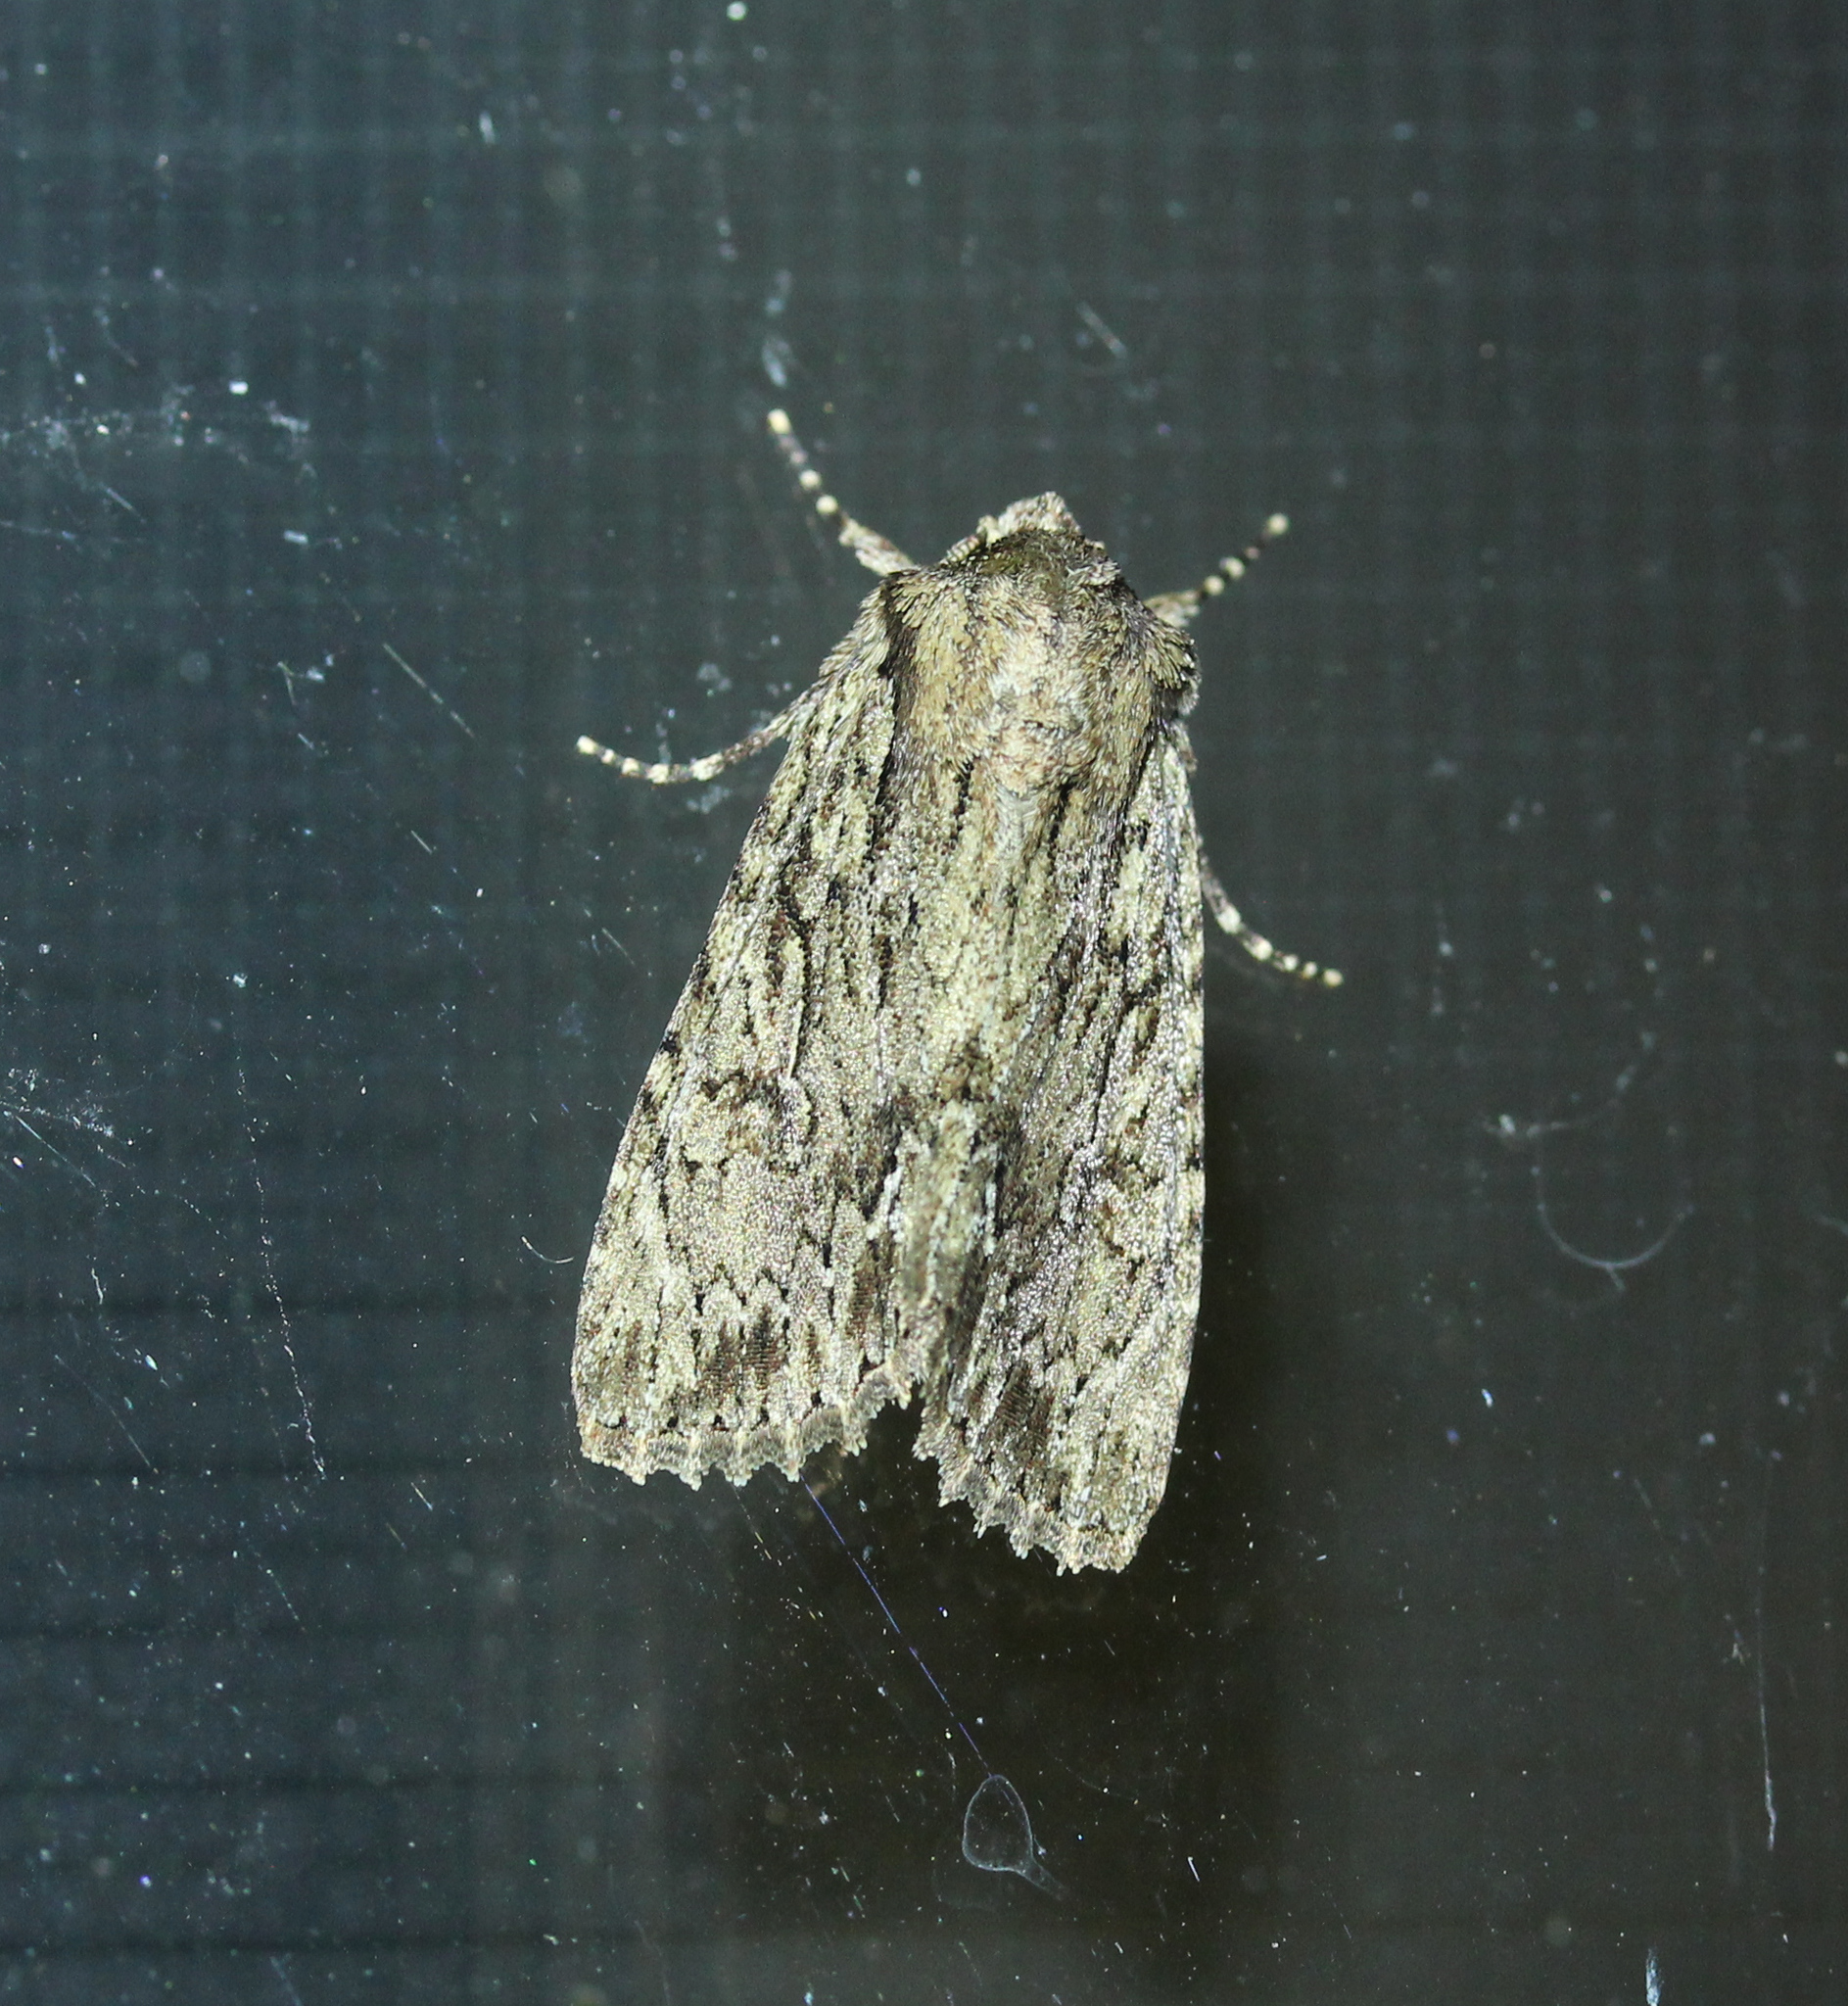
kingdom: Animalia
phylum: Arthropoda
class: Insecta
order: Lepidoptera
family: Noctuidae
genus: Achatia
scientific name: Achatia confusa
